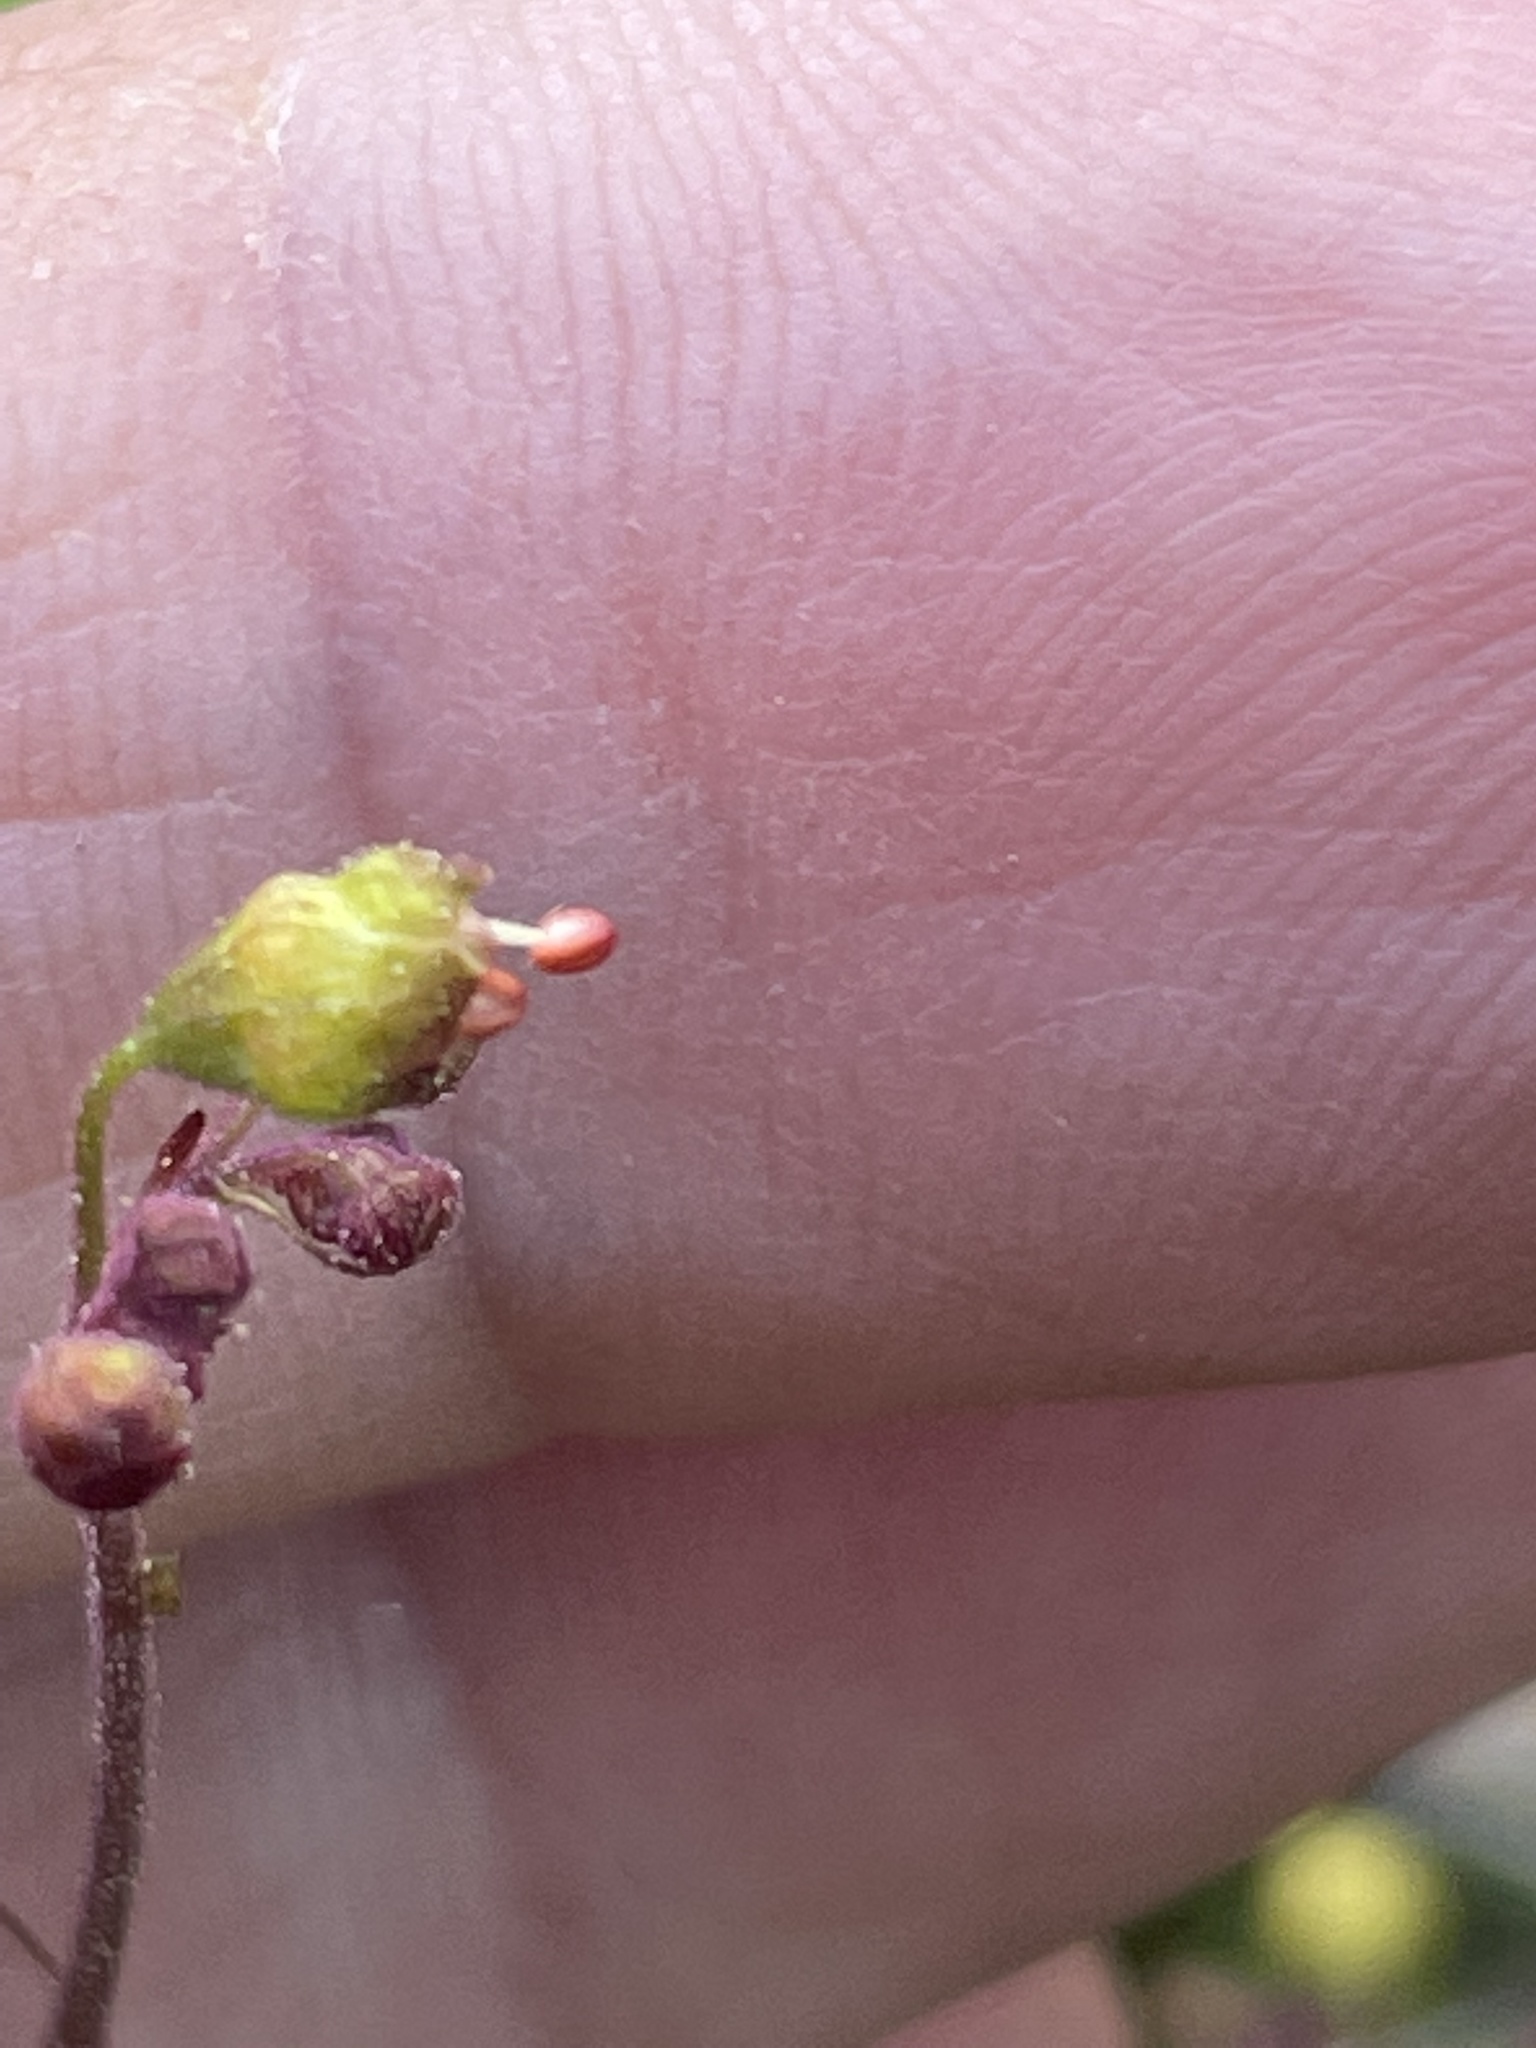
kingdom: Plantae
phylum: Tracheophyta
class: Magnoliopsida
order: Saxifragales
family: Saxifragaceae
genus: Heuchera
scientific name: Heuchera caroliniana
